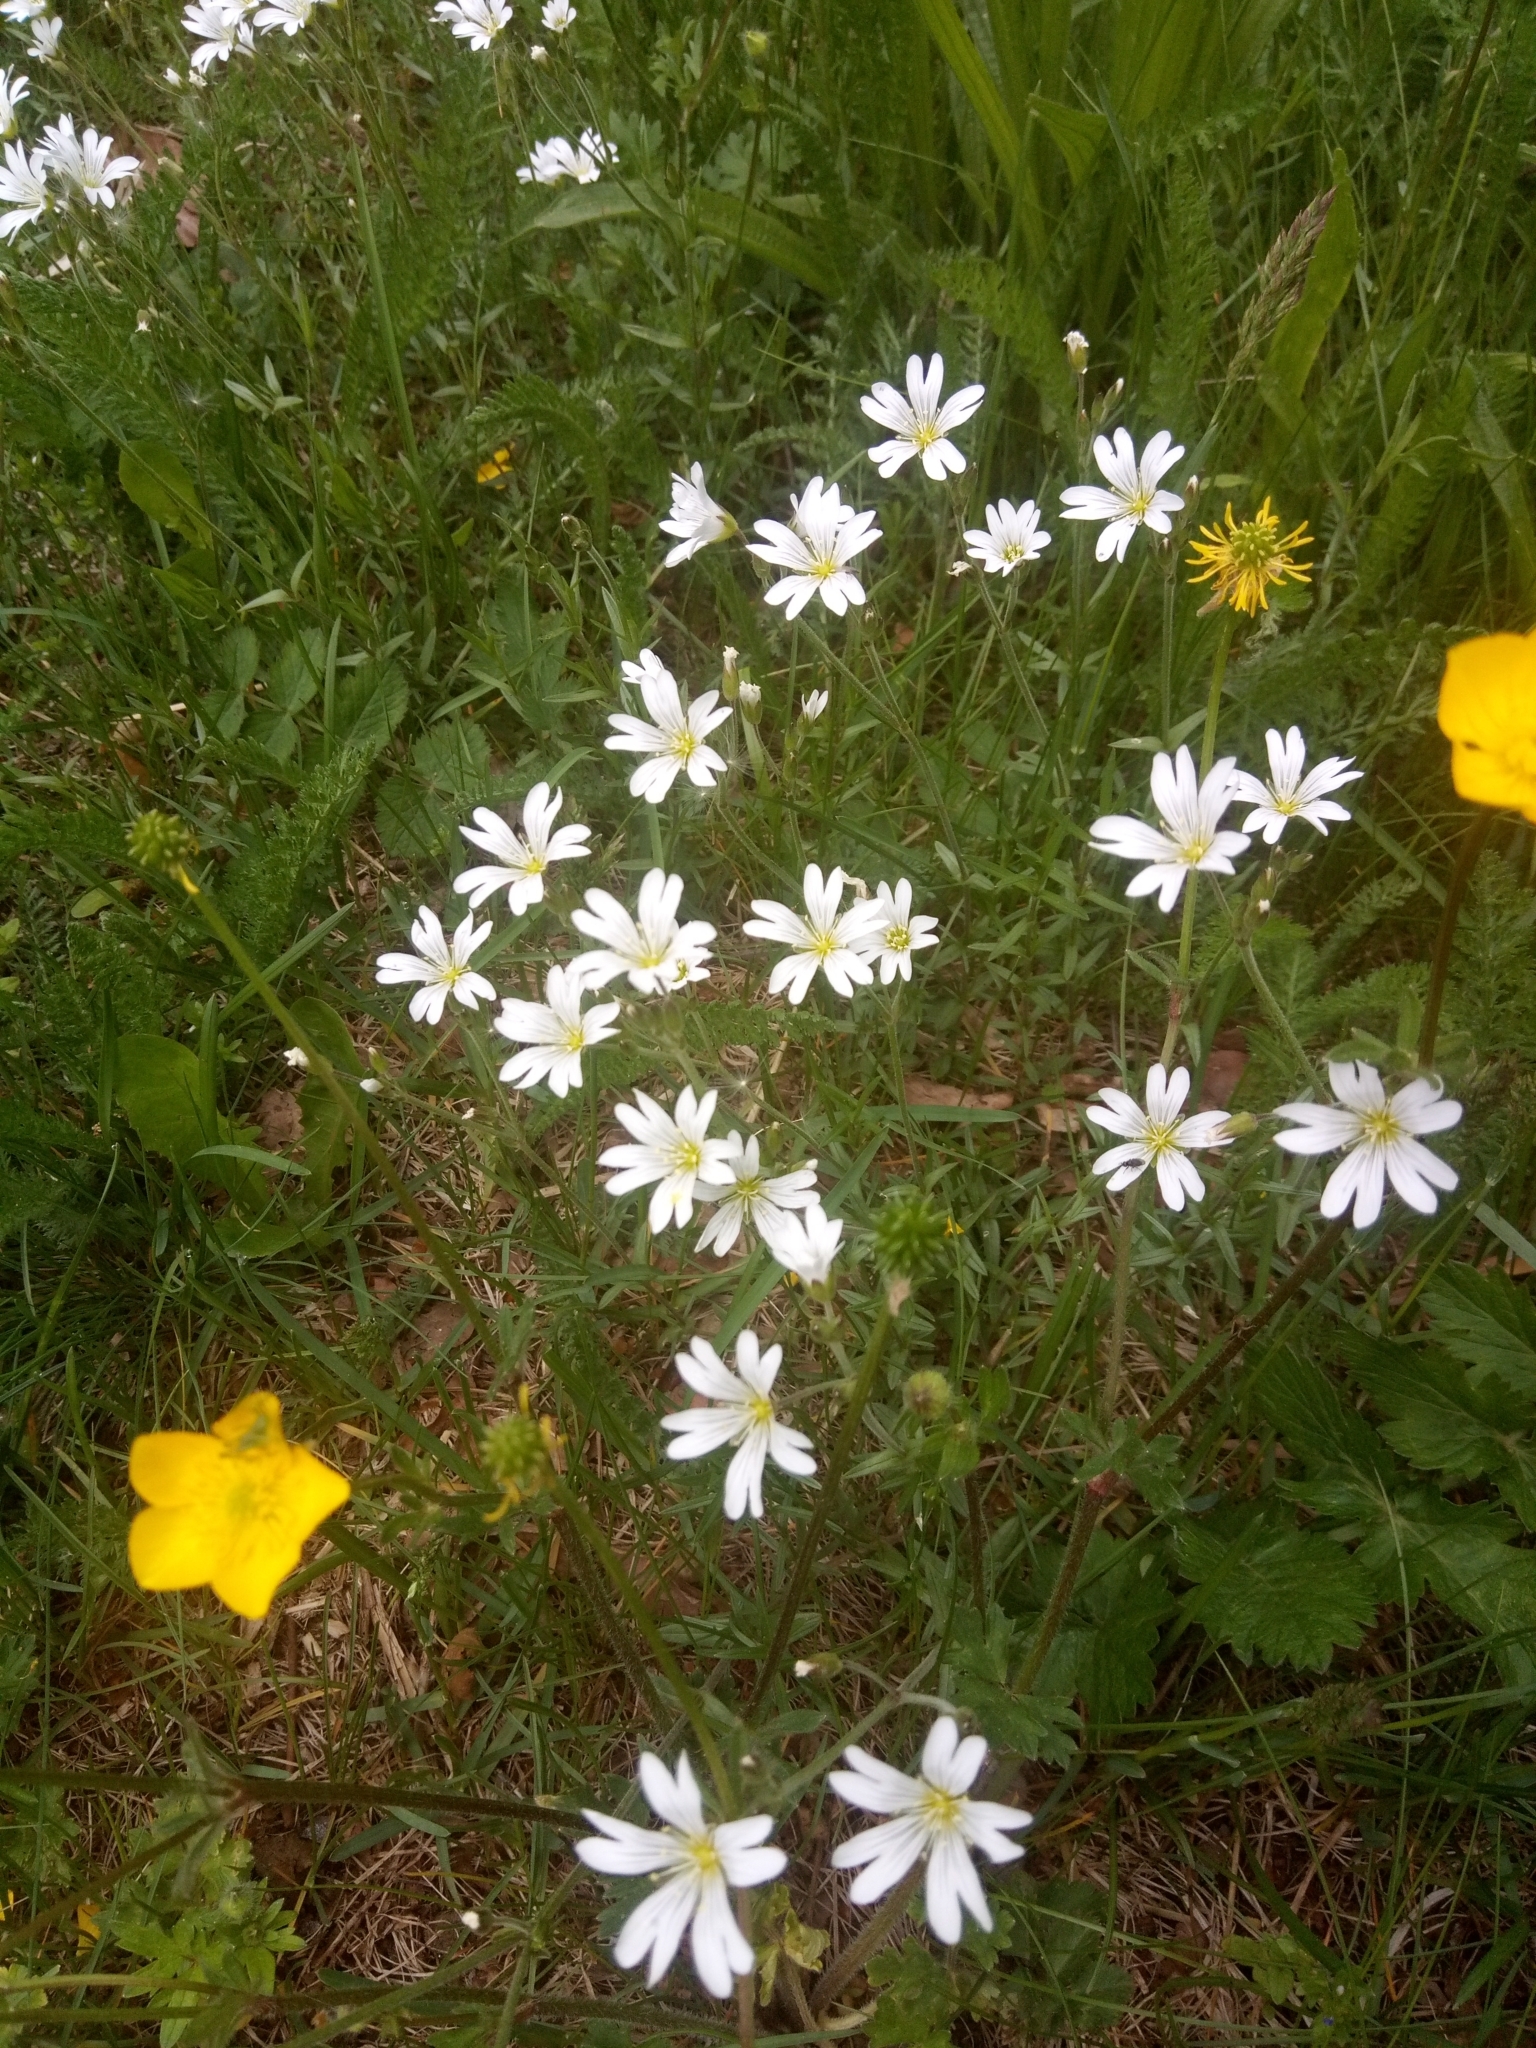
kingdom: Plantae
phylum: Tracheophyta
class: Magnoliopsida
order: Caryophyllales
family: Caryophyllaceae
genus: Rabelera
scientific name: Rabelera holostea
